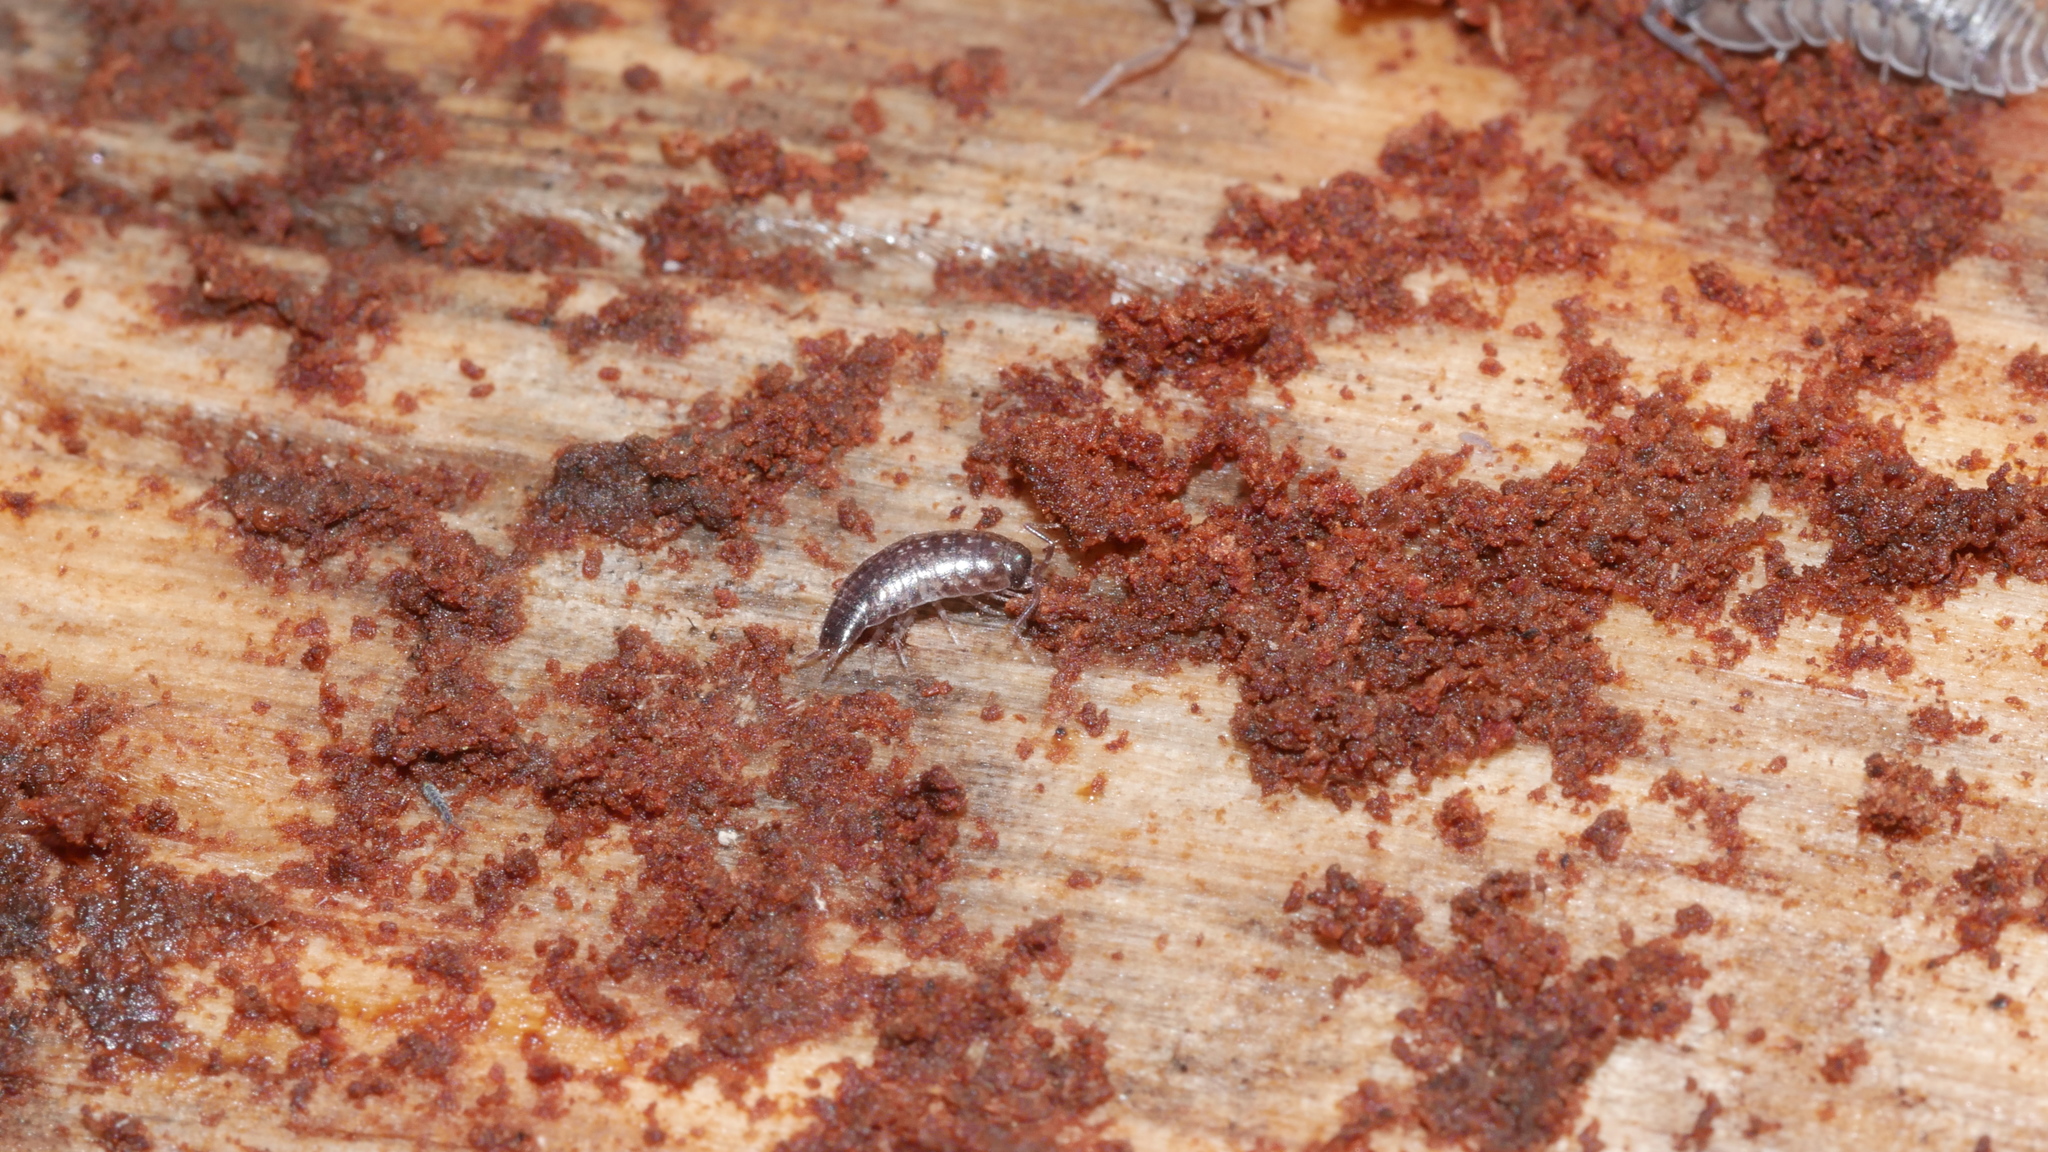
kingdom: Animalia
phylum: Arthropoda
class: Malacostraca
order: Isopoda
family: Philosciidae
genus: Chaetophiloscia
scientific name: Chaetophiloscia sicula
